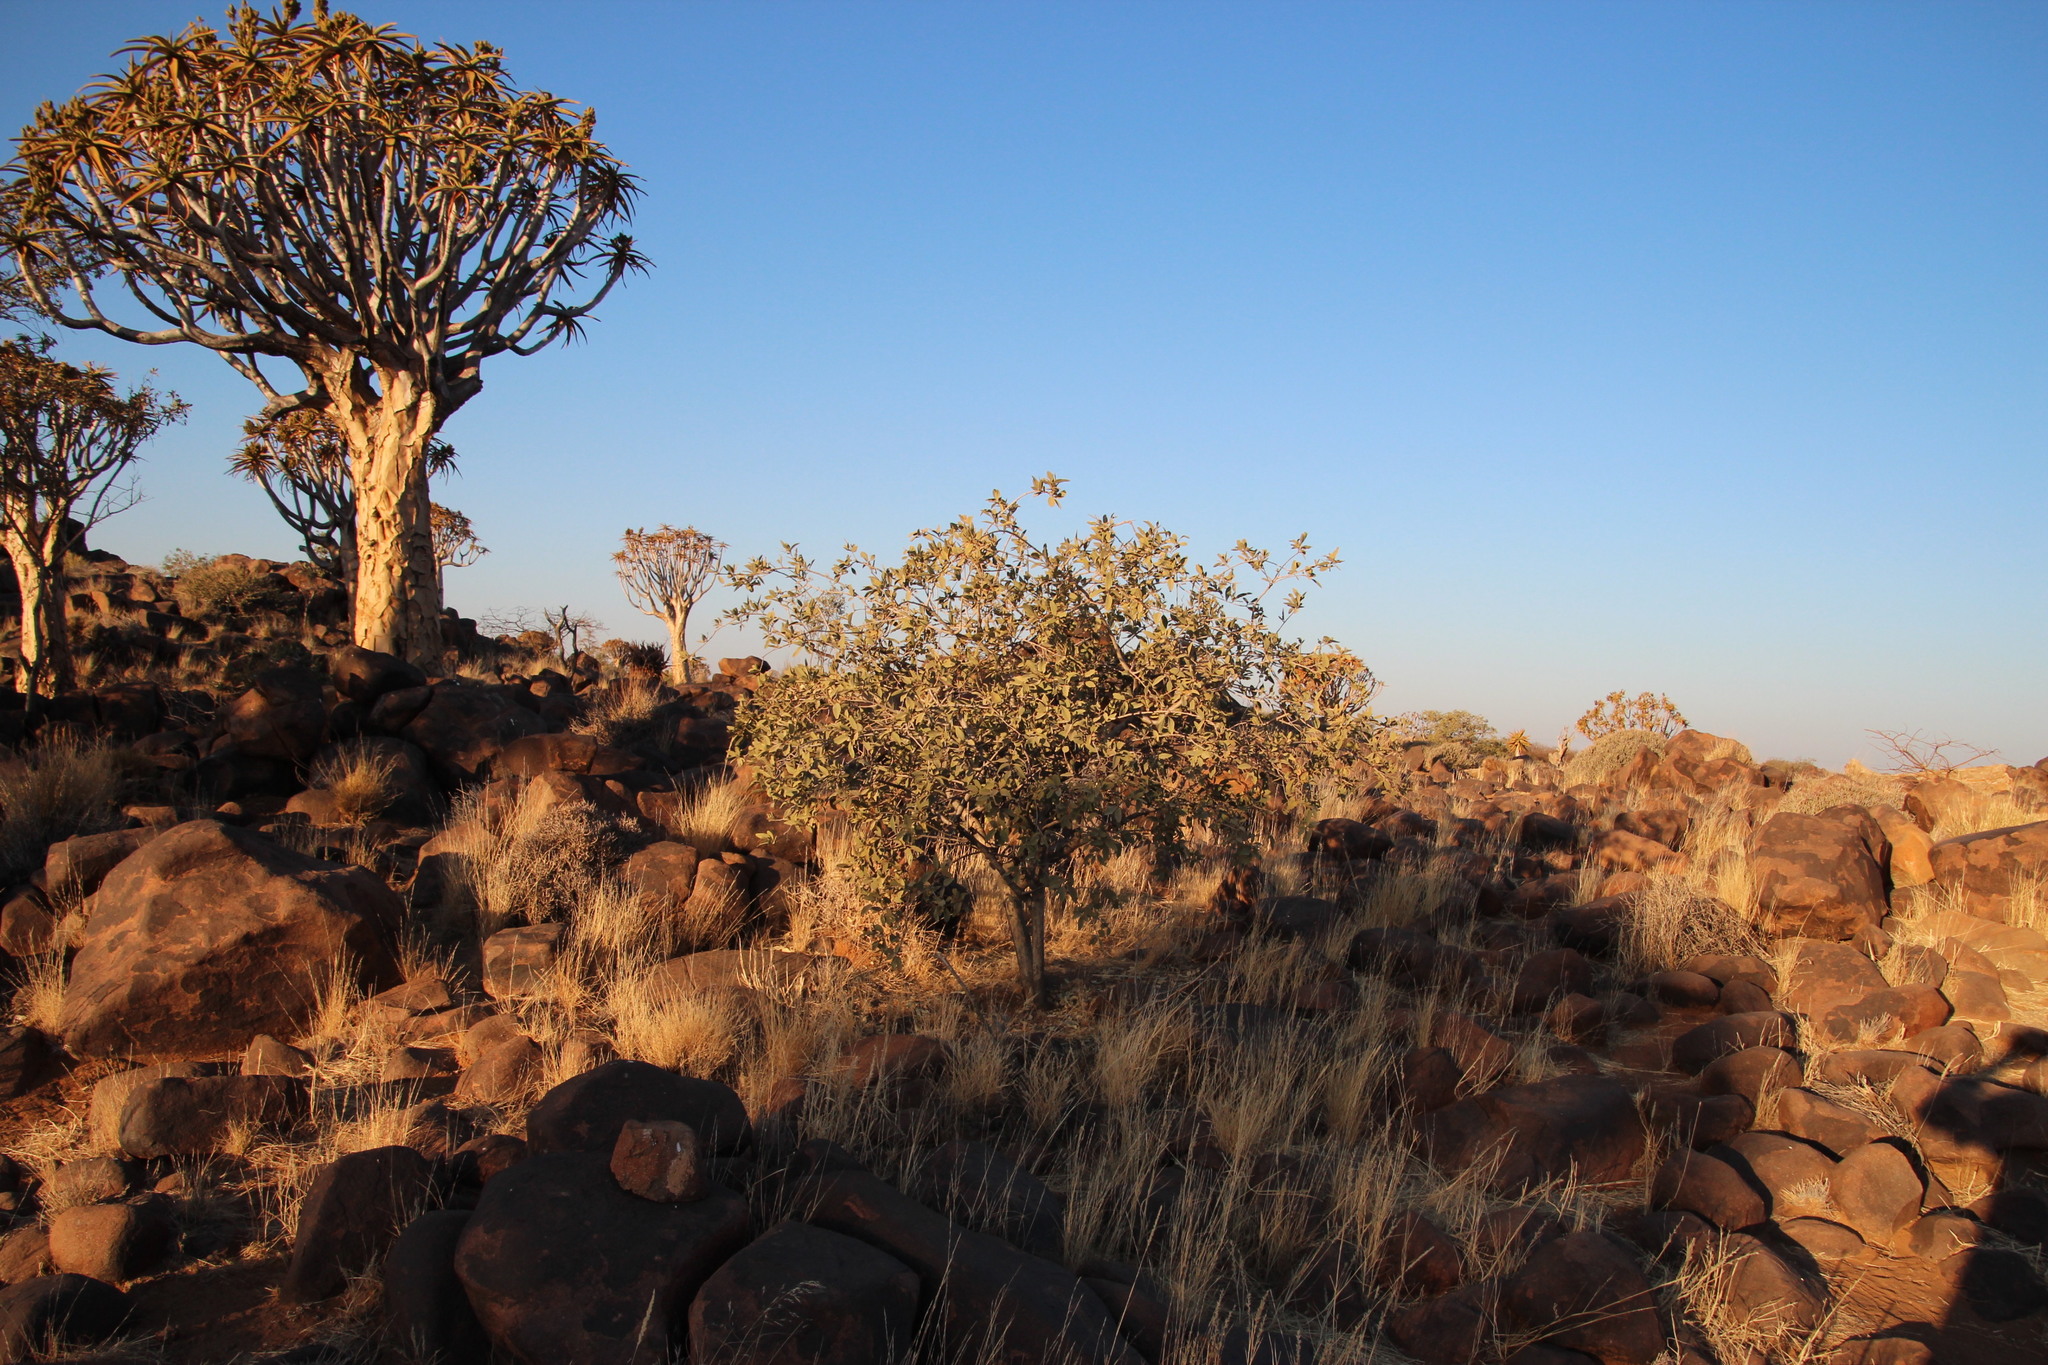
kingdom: Plantae
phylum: Tracheophyta
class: Magnoliopsida
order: Brassicales
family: Capparaceae
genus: Maerua
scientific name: Maerua schinzii
